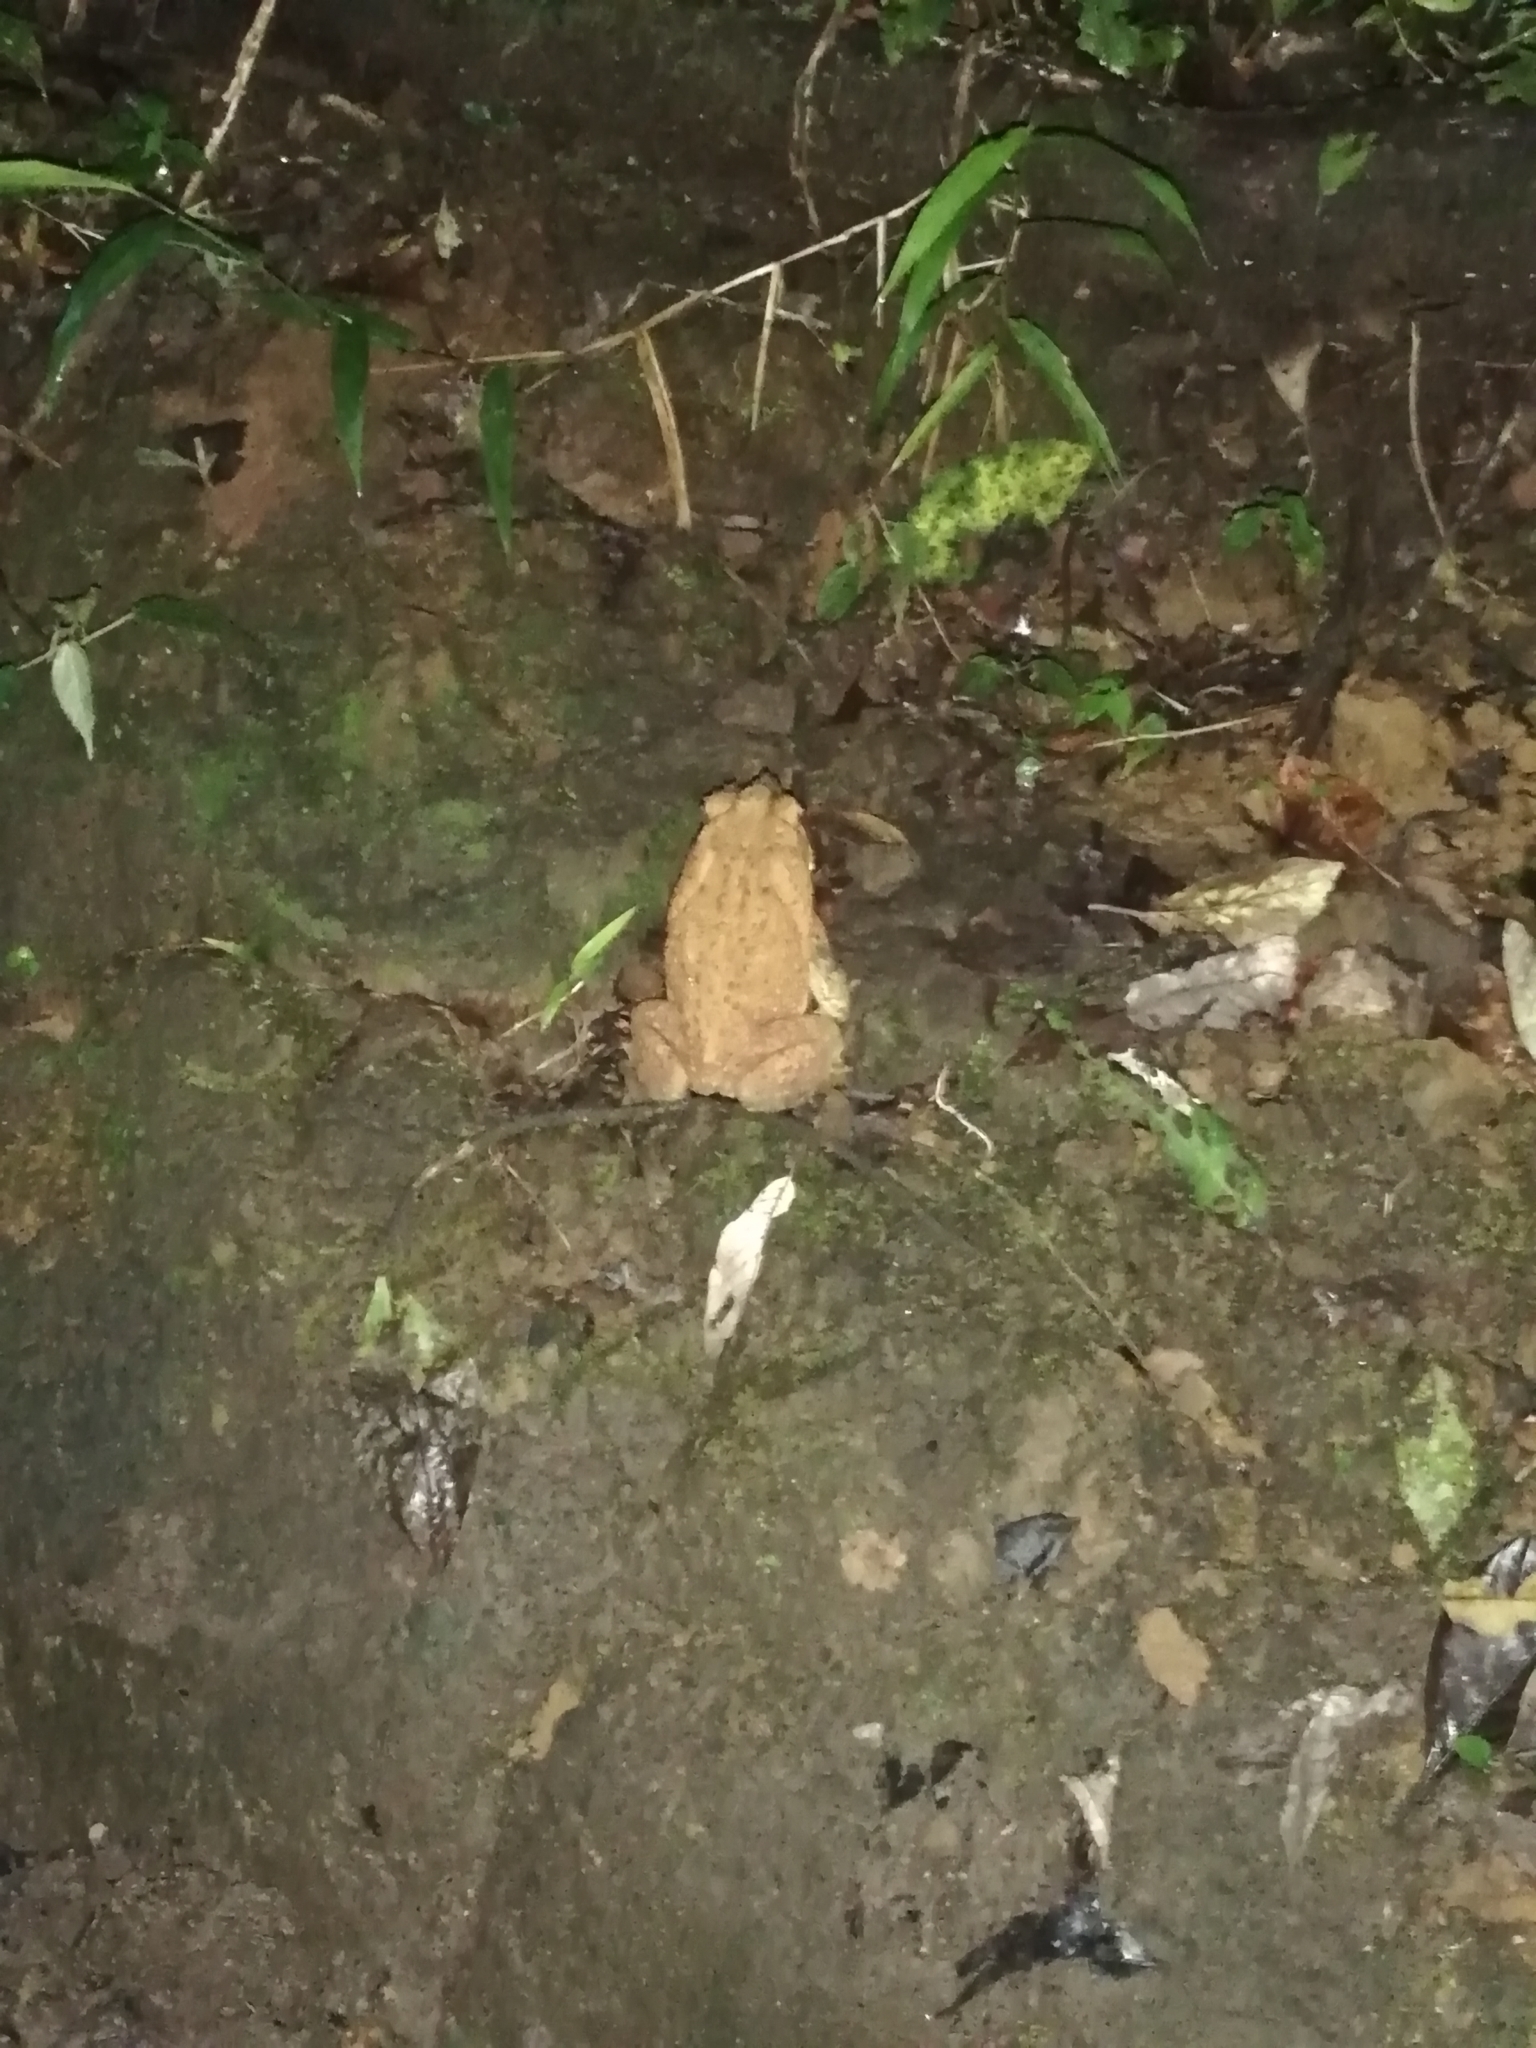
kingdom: Animalia
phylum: Chordata
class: Amphibia
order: Anura
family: Bufonidae
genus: Rhinella
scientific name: Rhinella horribilis
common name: Mesoamerican cane toad
